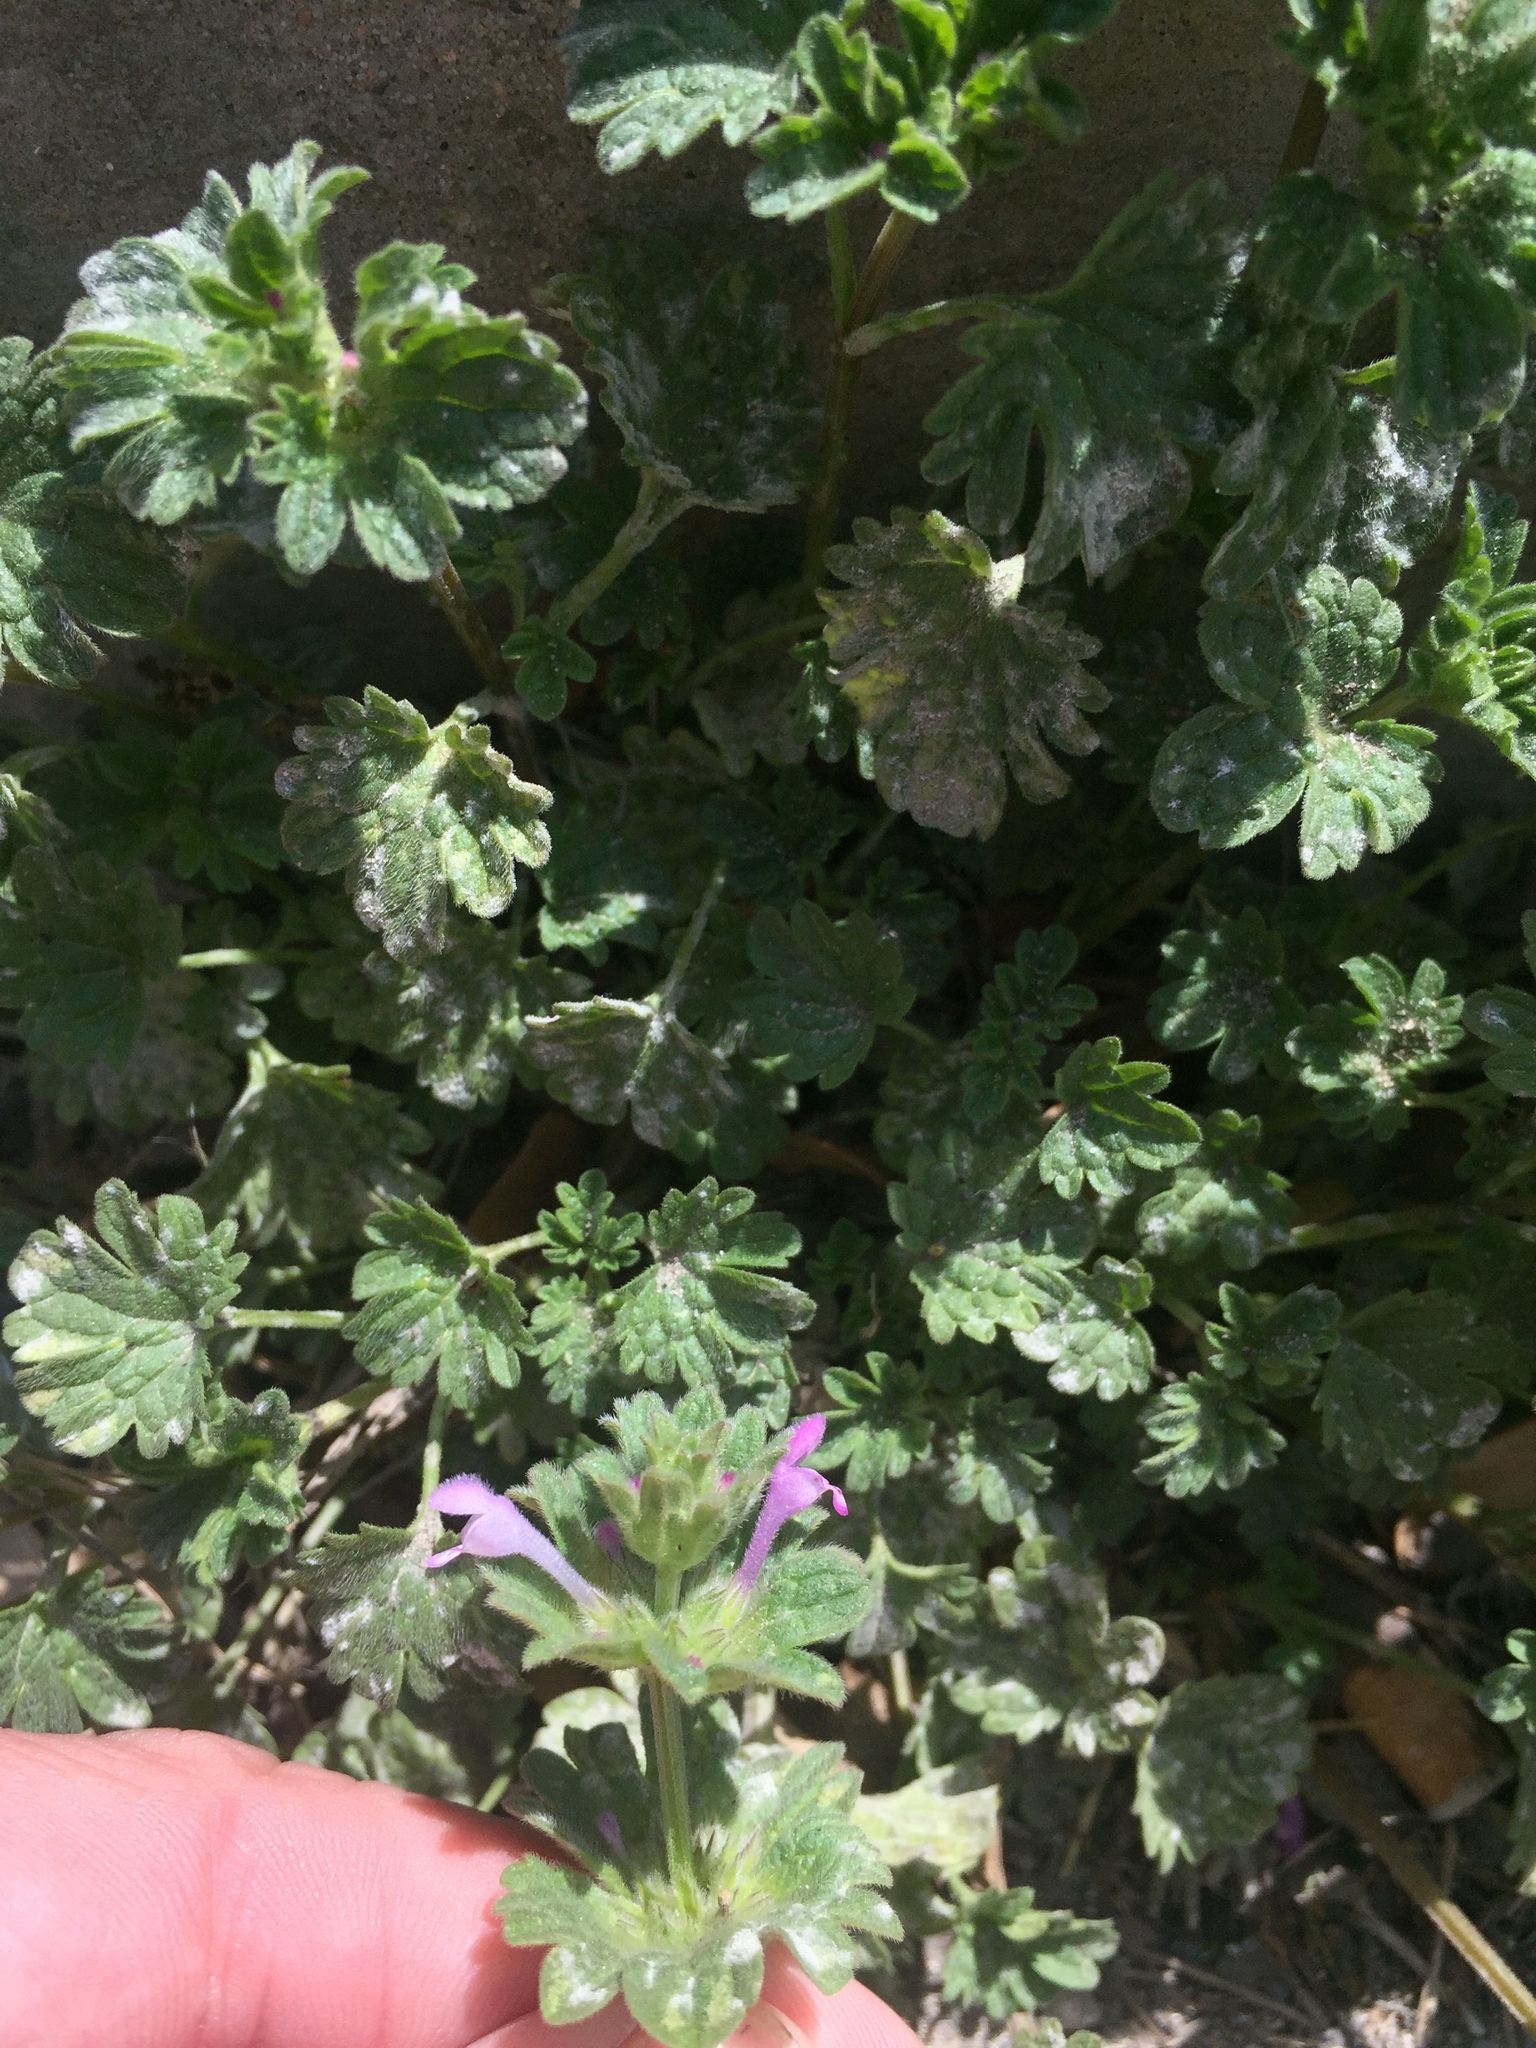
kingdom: Plantae
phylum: Tracheophyta
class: Magnoliopsida
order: Lamiales
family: Lamiaceae
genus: Lamium
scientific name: Lamium amplexicaule
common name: Henbit dead-nettle
